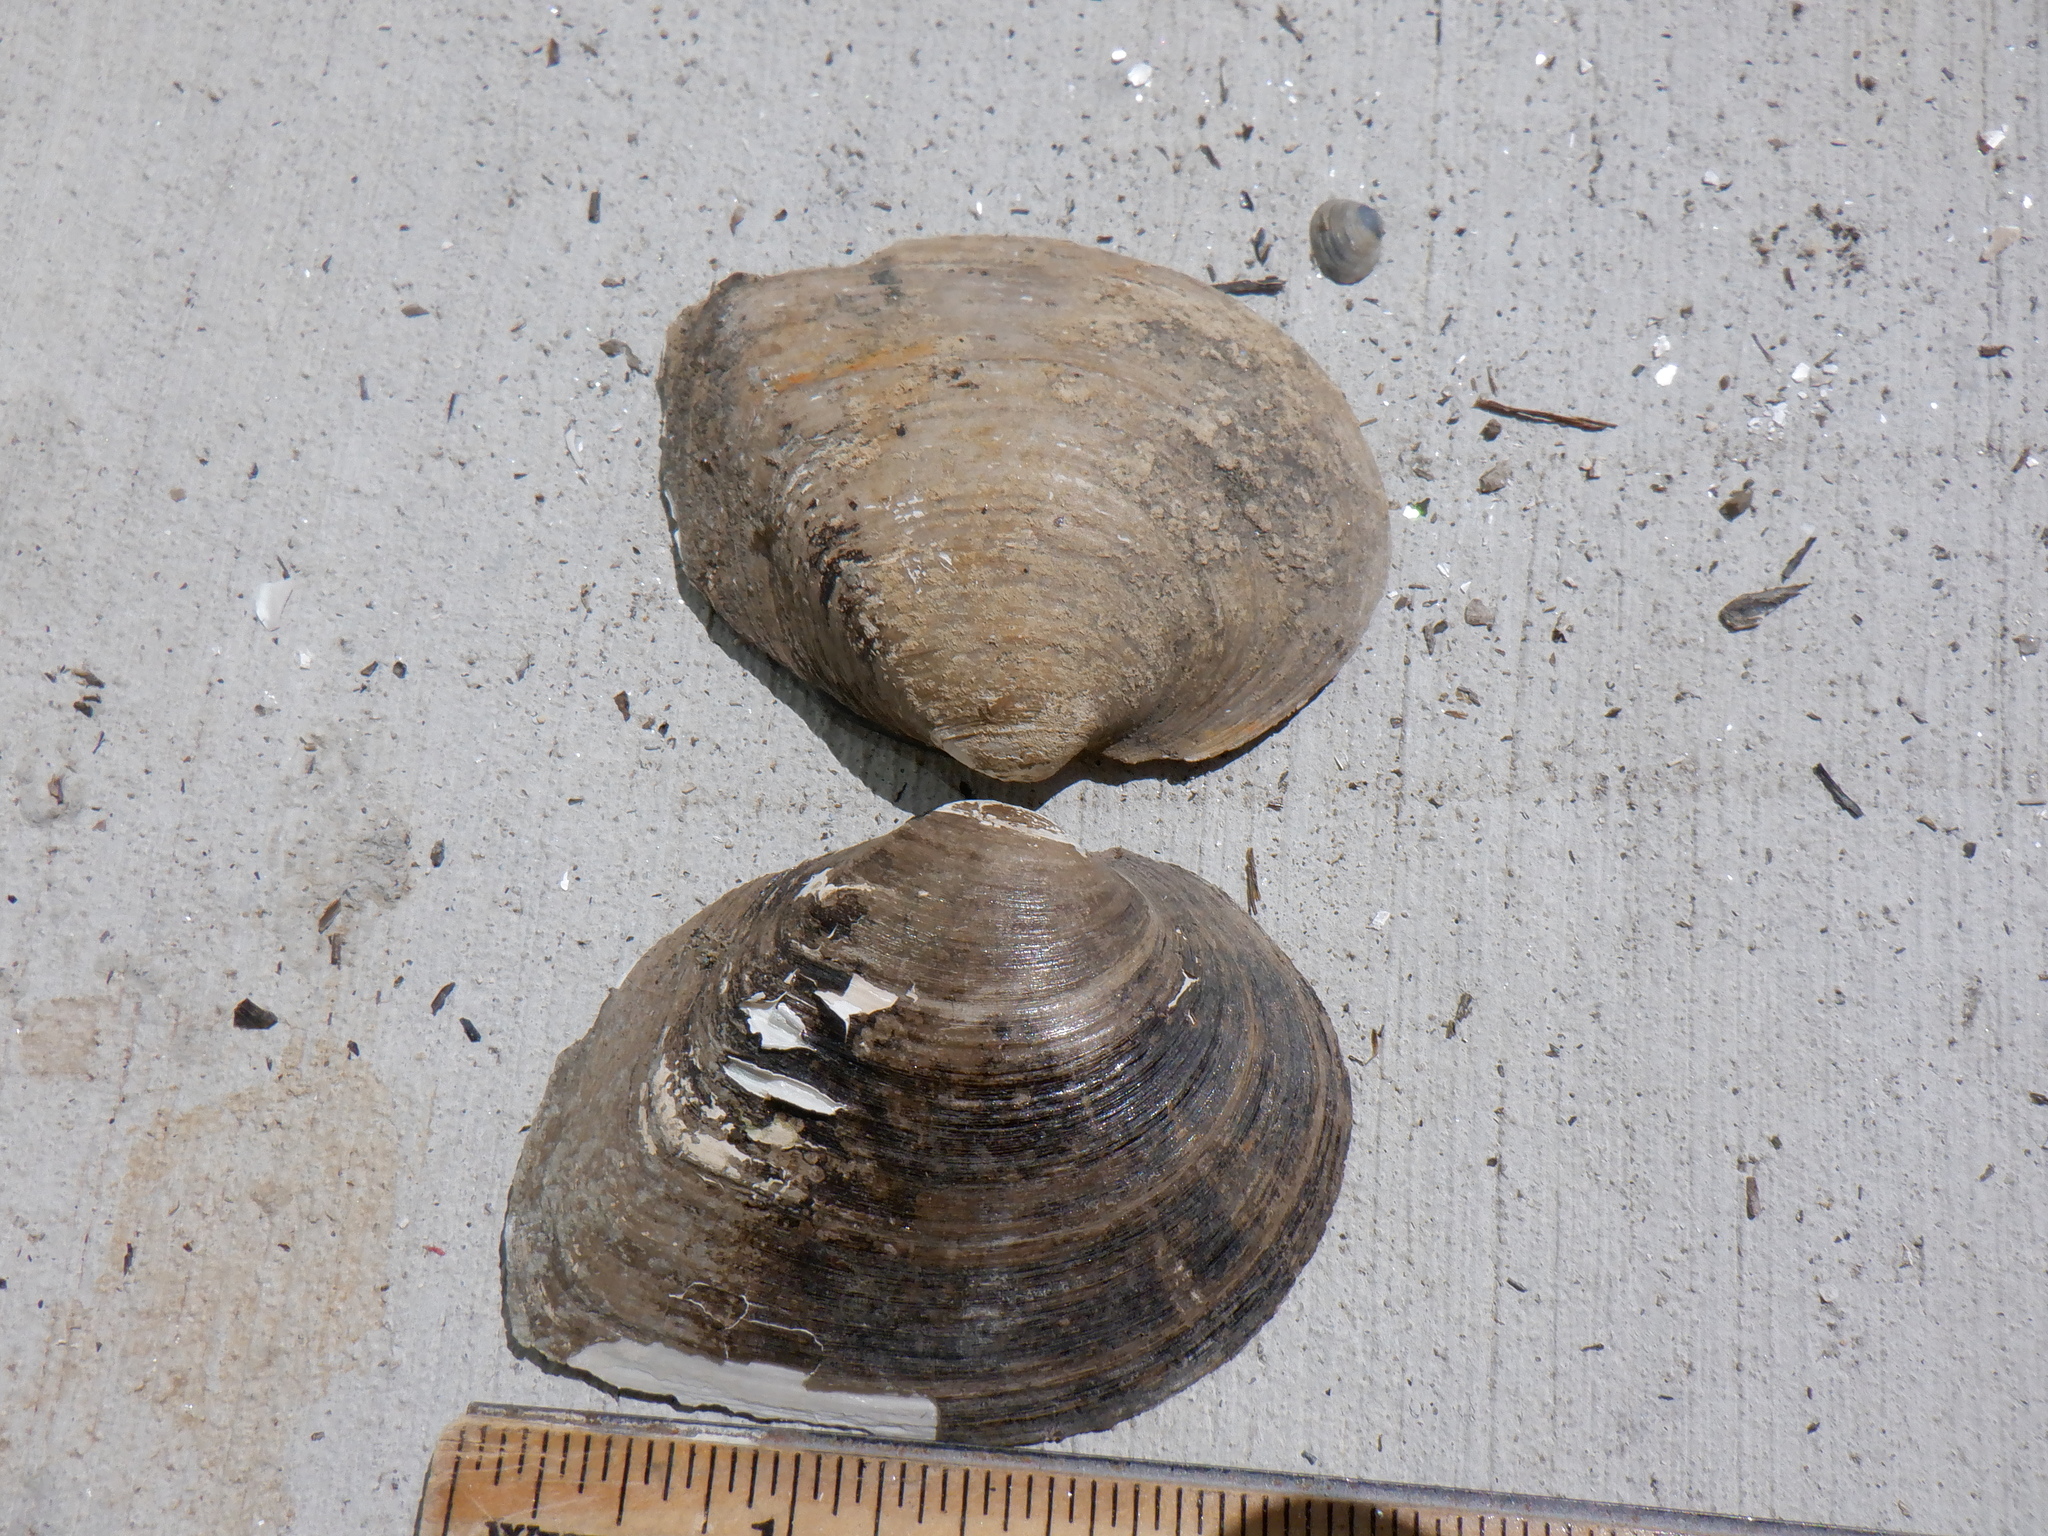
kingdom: Animalia
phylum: Mollusca
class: Bivalvia
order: Unionida
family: Unionidae
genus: Fusconaia
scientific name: Fusconaia flava
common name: Wabash pigtoe
